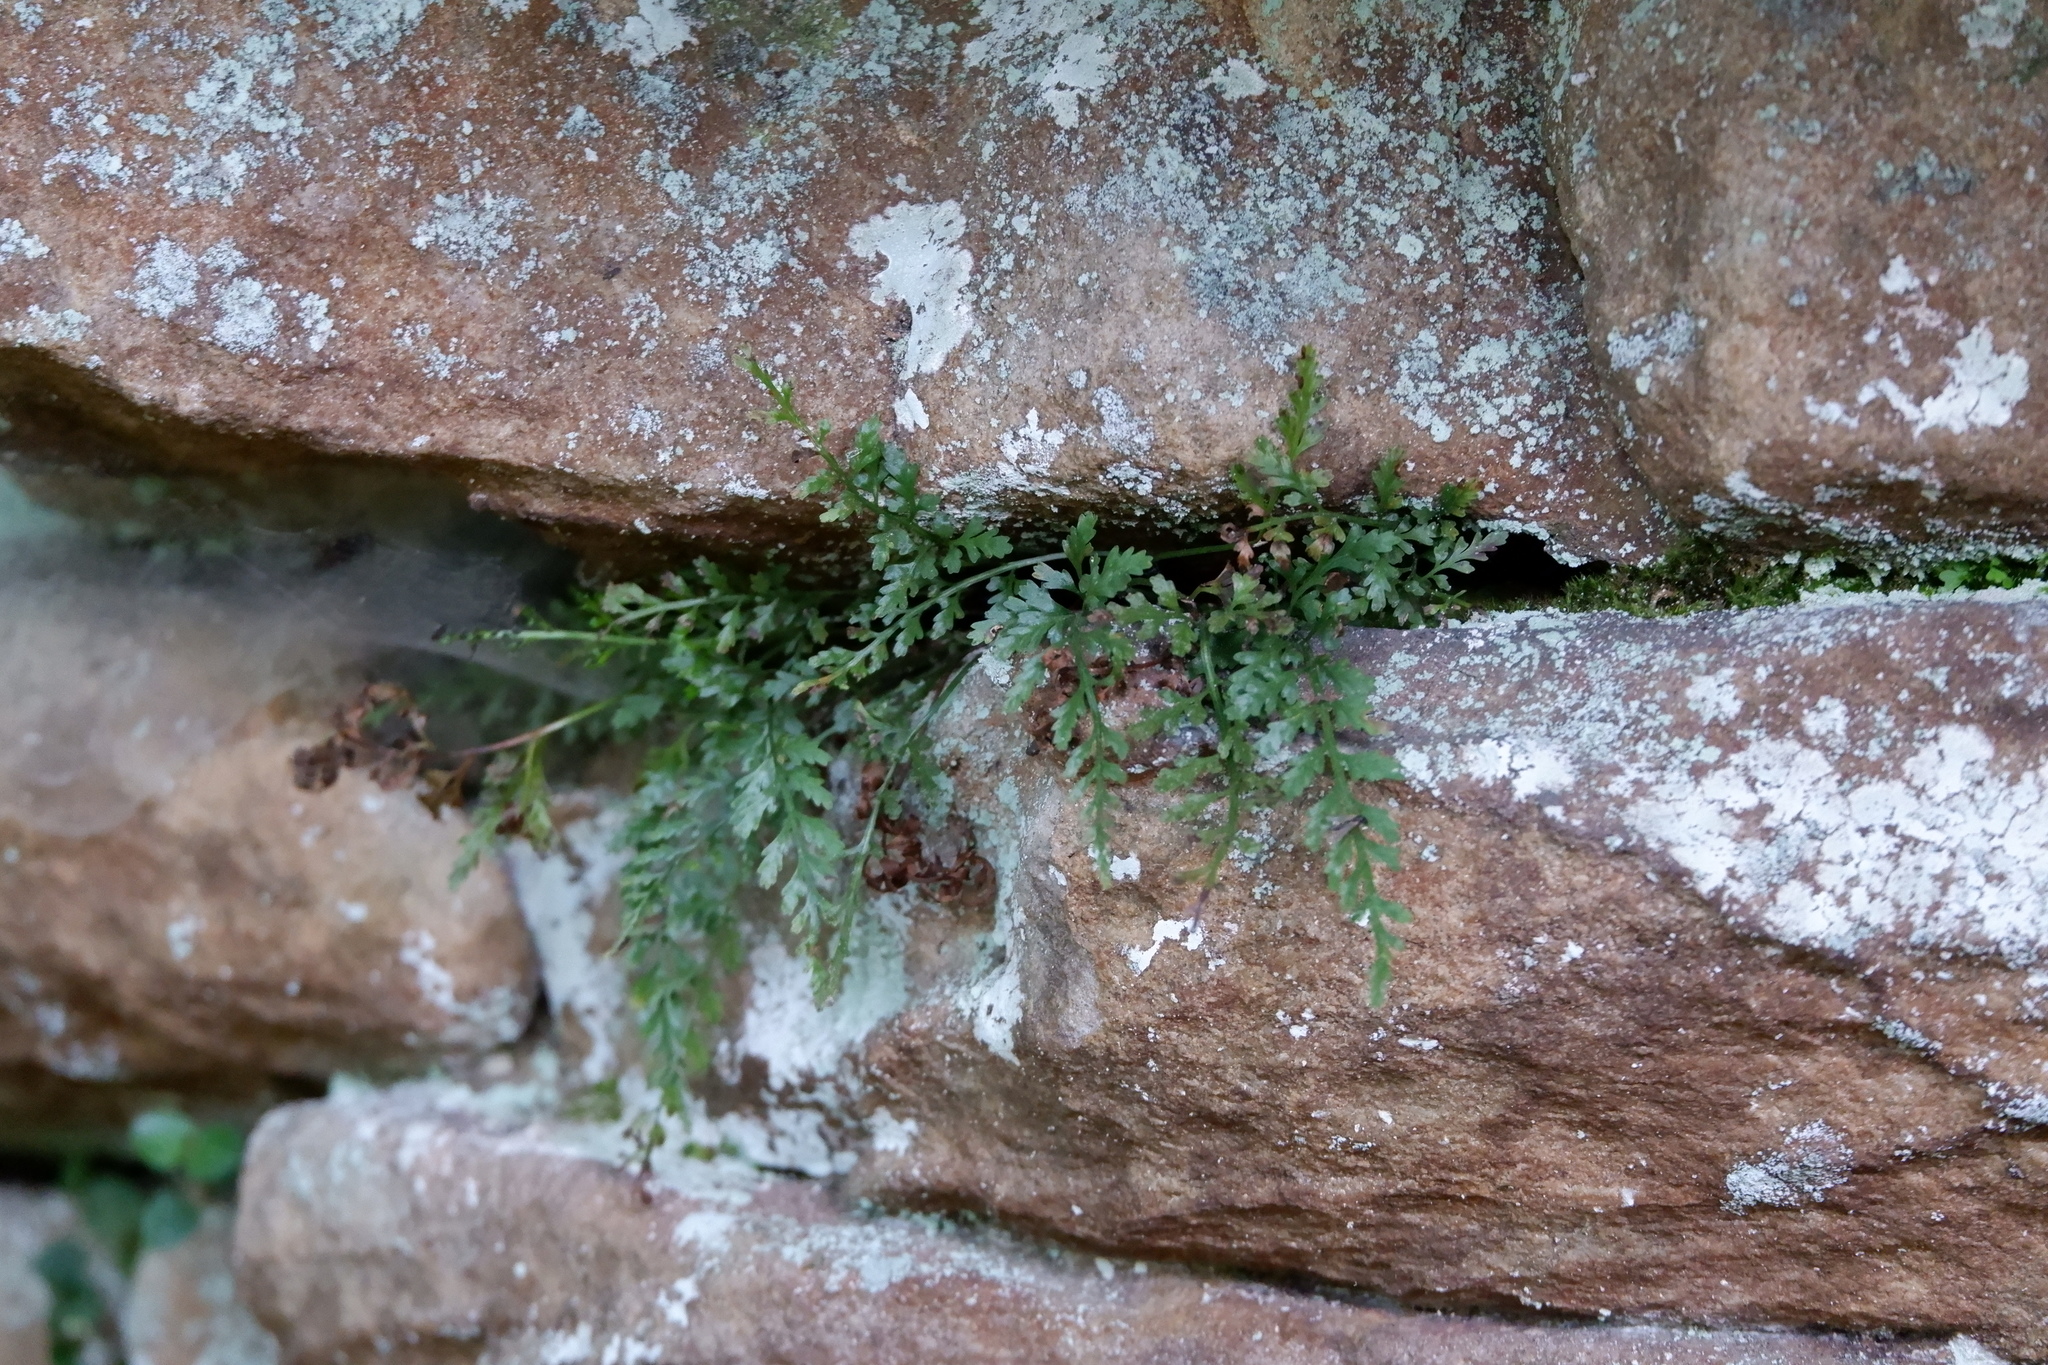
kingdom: Plantae
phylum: Tracheophyta
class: Polypodiopsida
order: Polypodiales
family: Aspleniaceae
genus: Asplenium
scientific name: Asplenium montanum
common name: Mountain spleenwort
